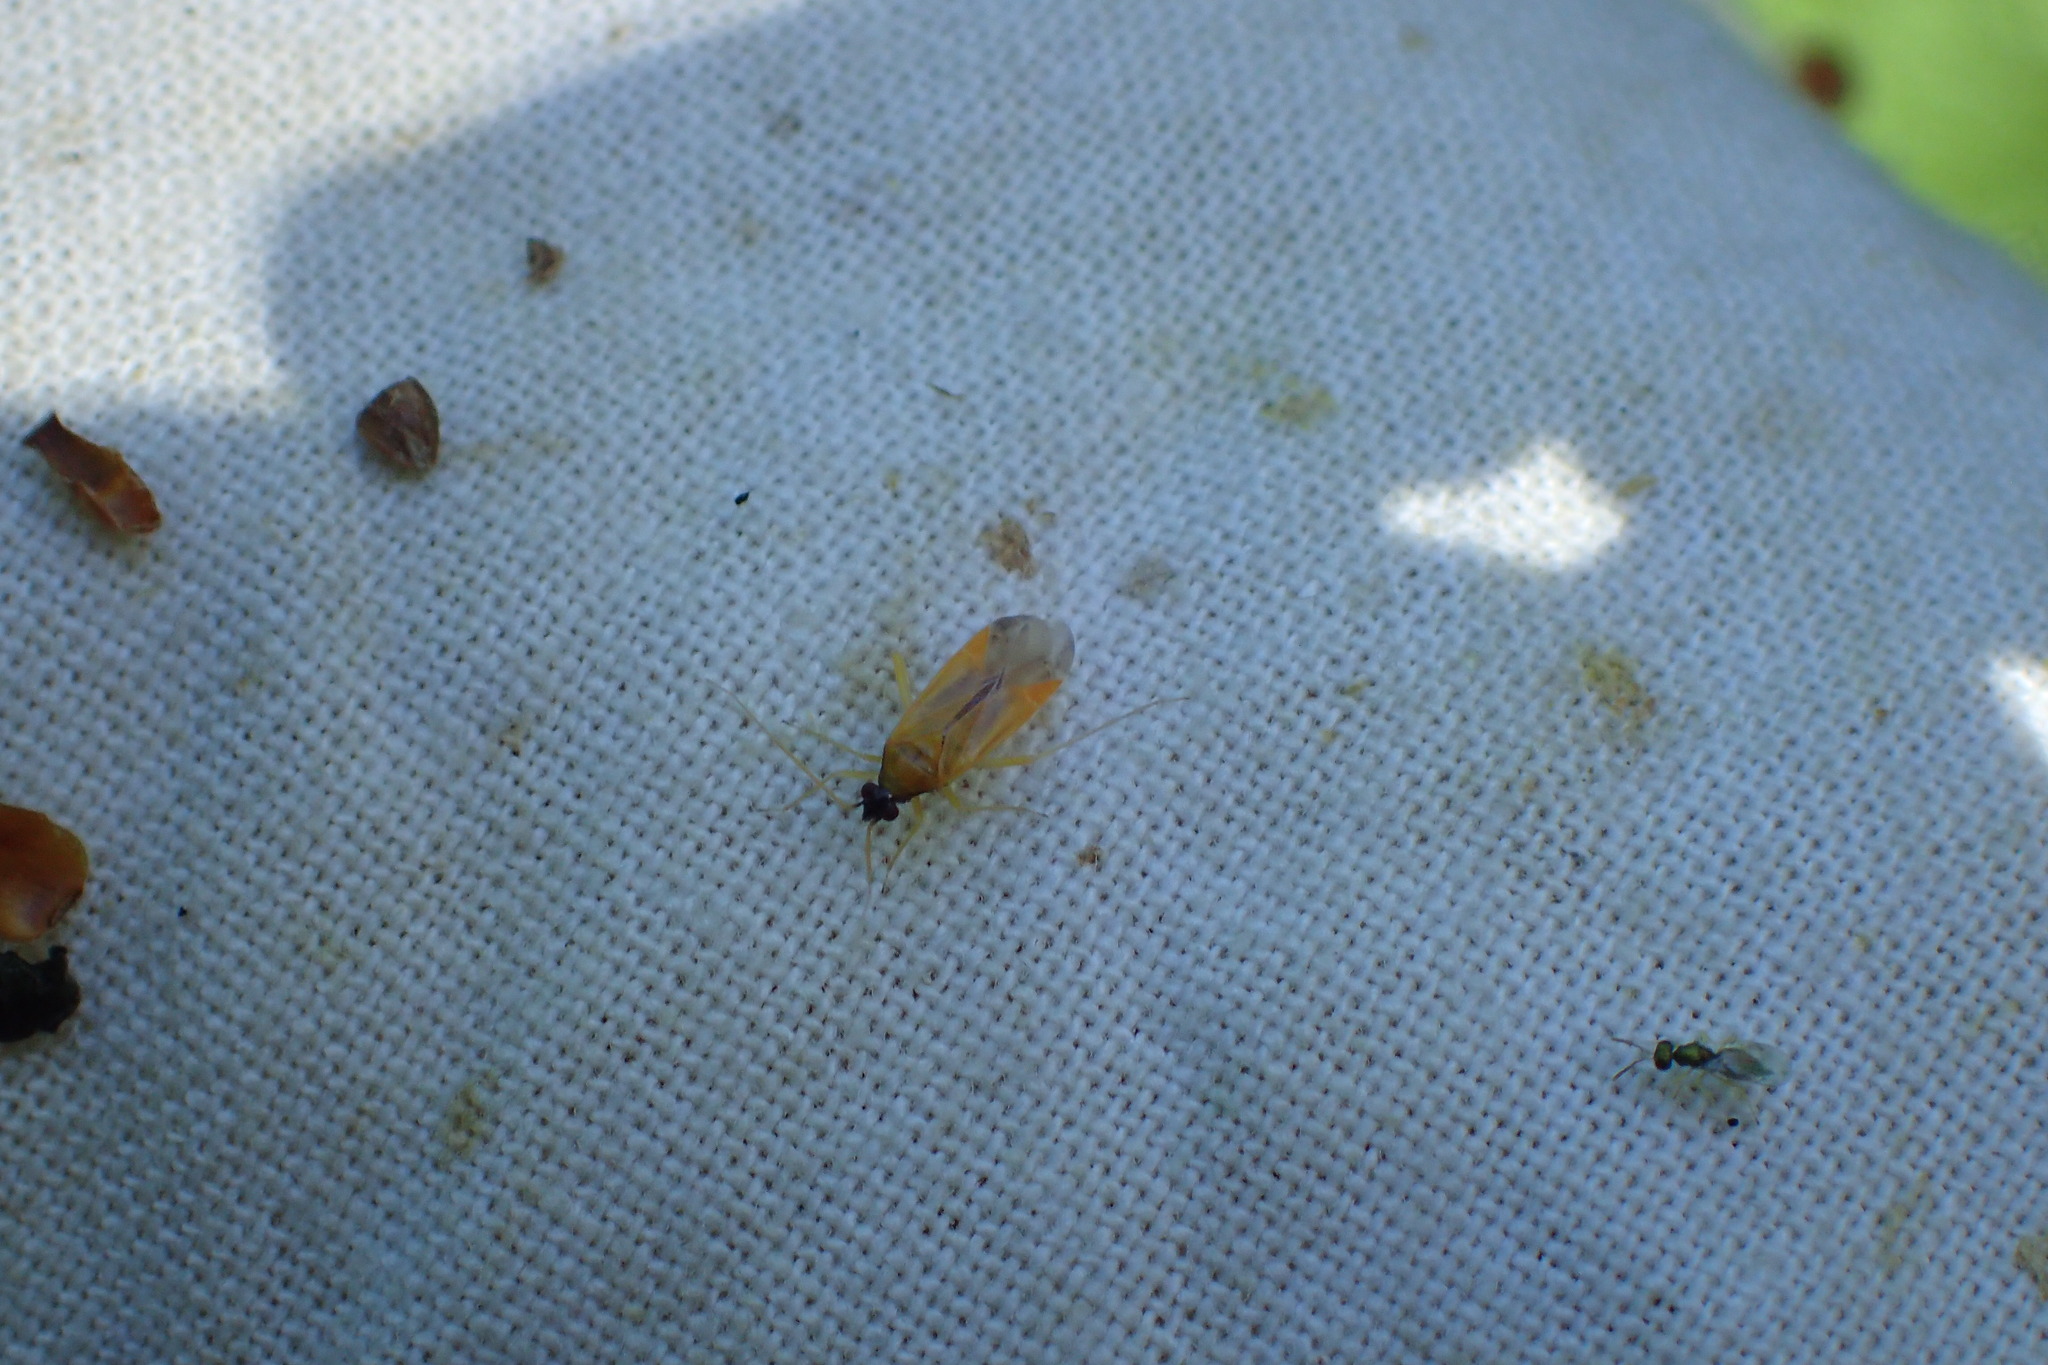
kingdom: Animalia
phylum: Arthropoda
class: Insecta
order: Hemiptera
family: Miridae
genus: Phylus
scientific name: Phylus melanocephalus
